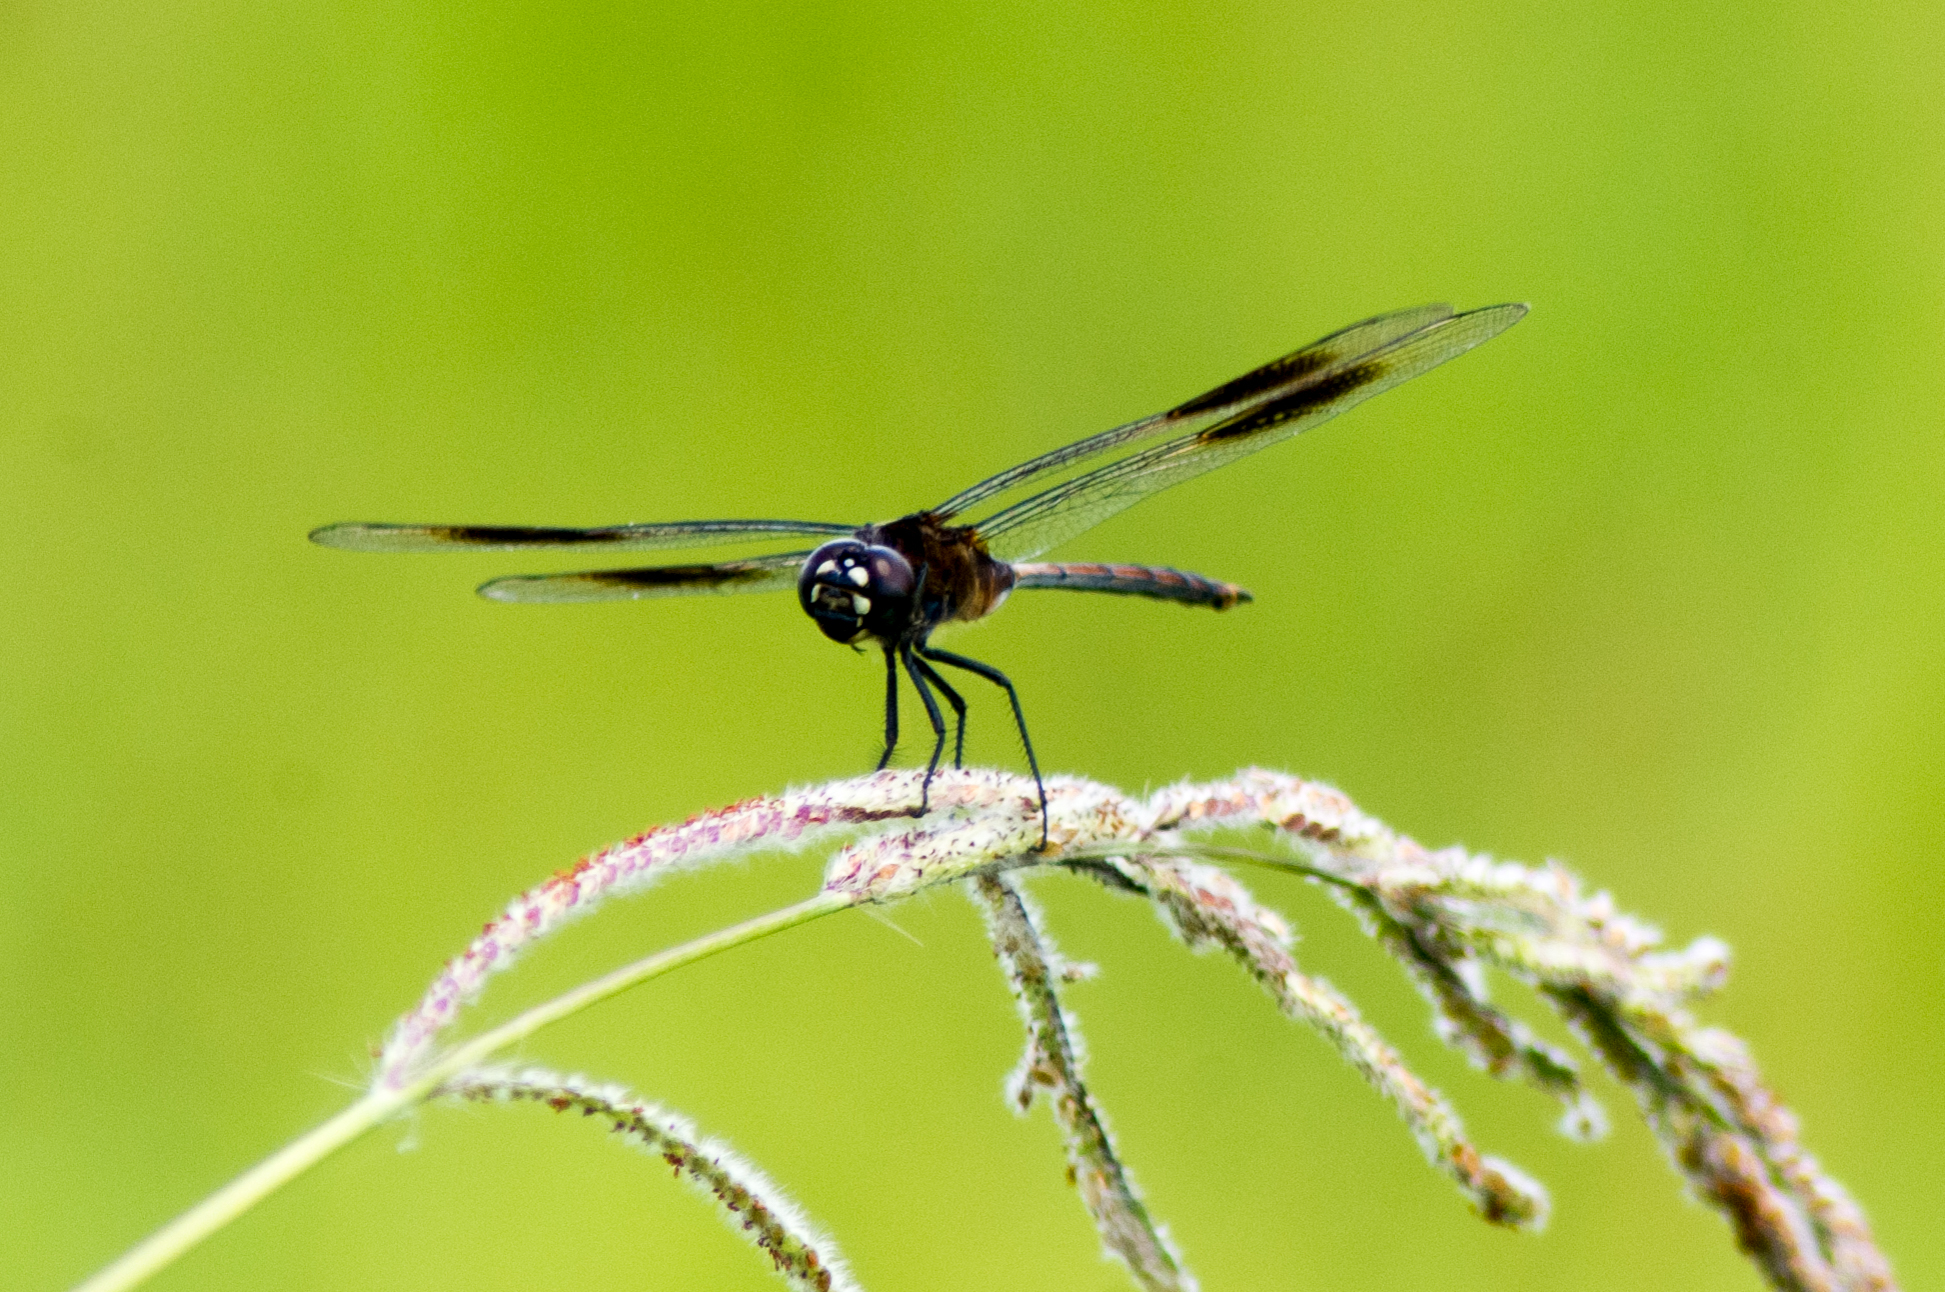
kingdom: Animalia
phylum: Arthropoda
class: Insecta
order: Odonata
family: Libellulidae
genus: Brachymesia
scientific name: Brachymesia gravida
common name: Four-spotted pennant
